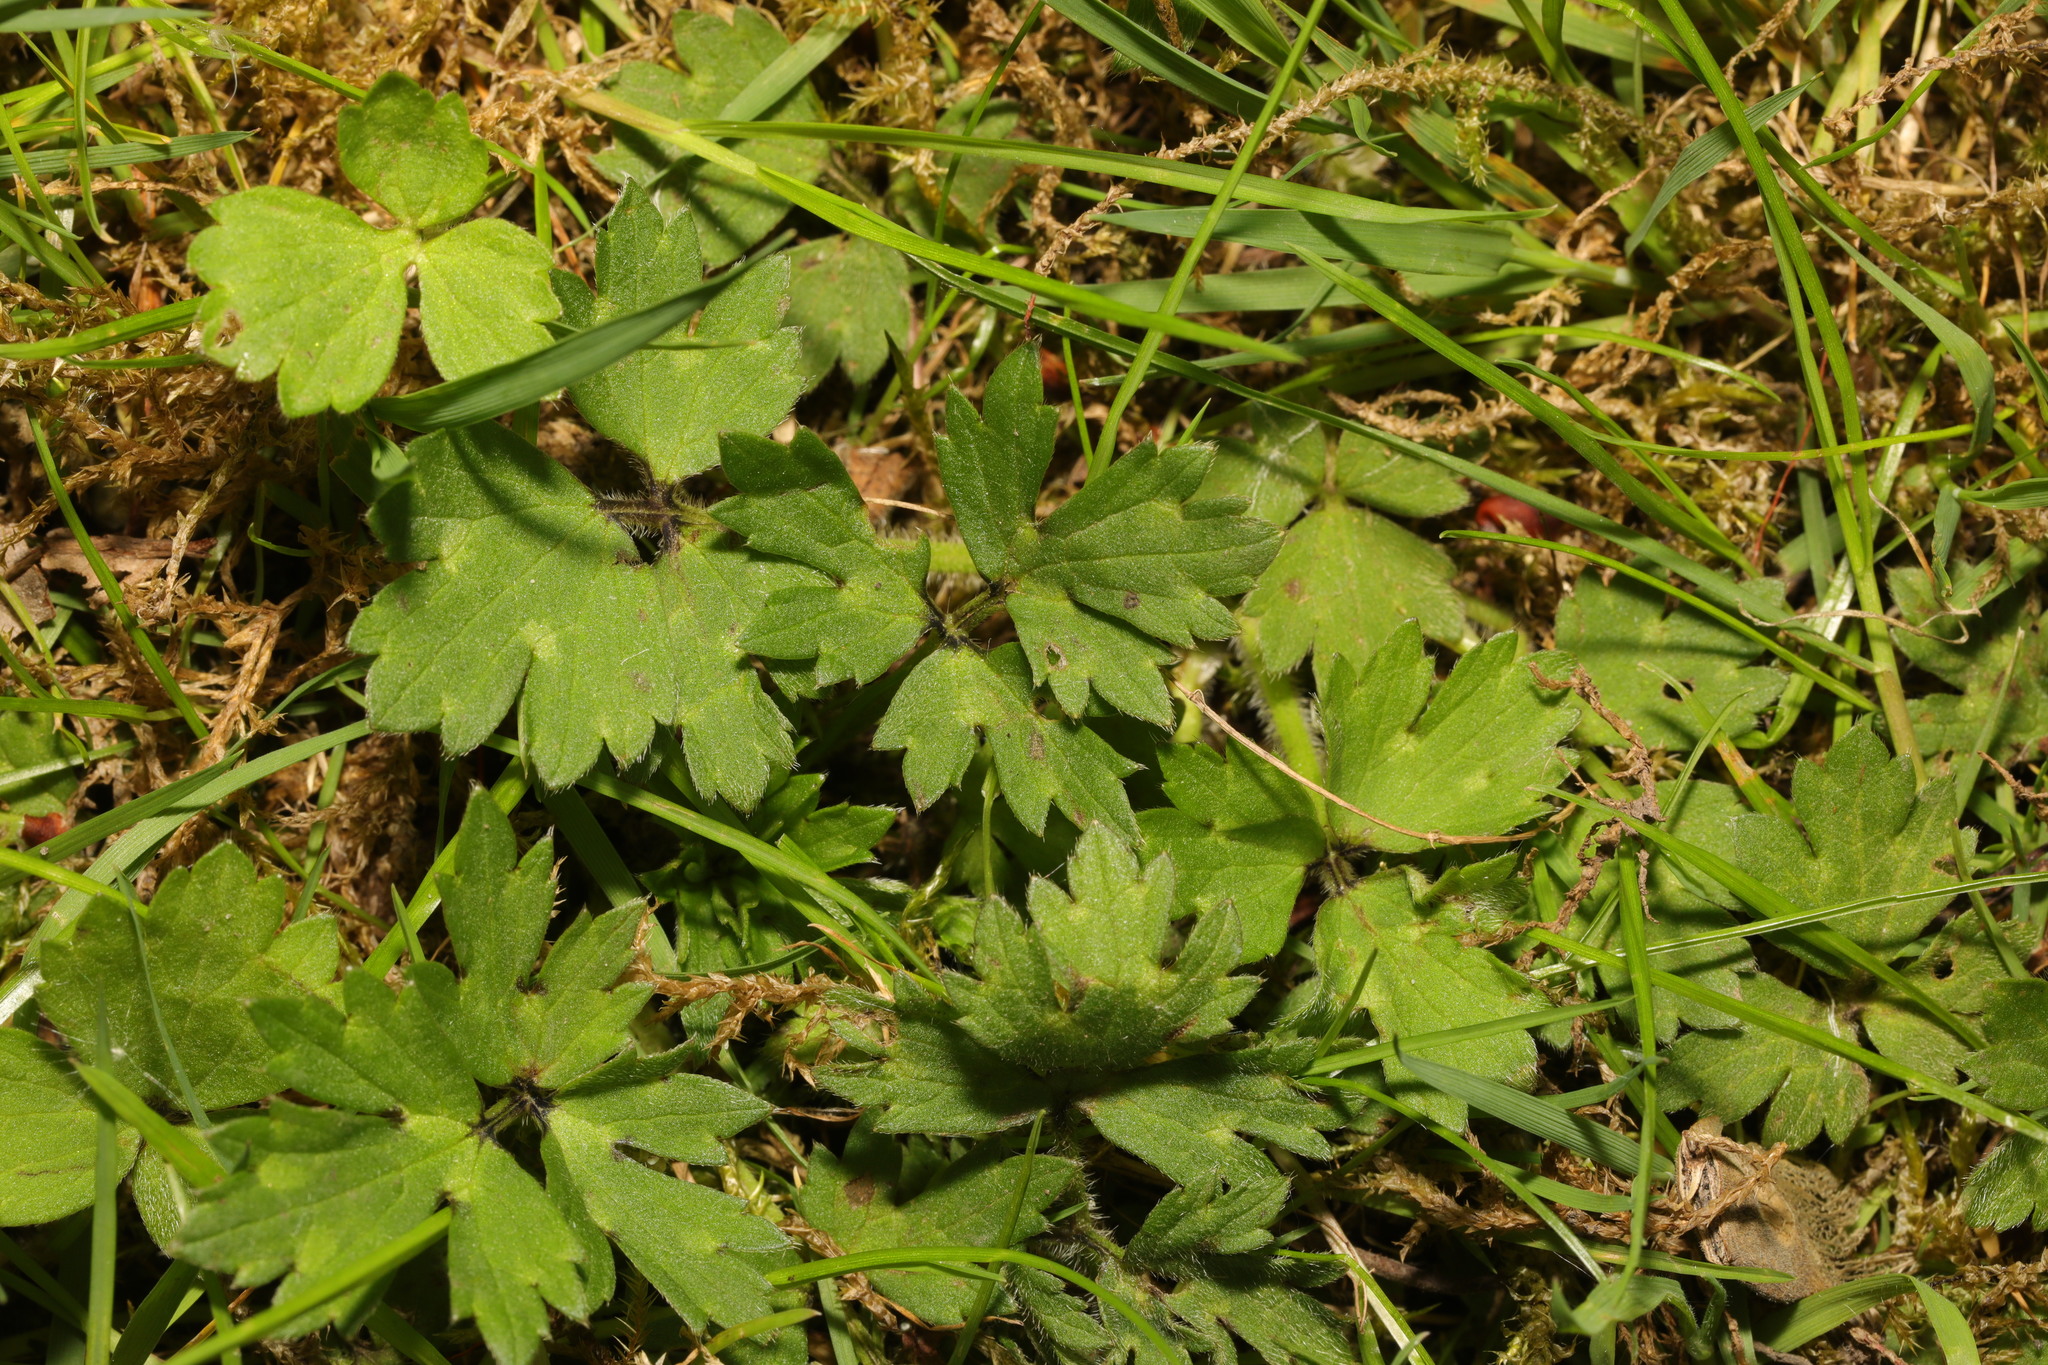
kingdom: Plantae
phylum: Tracheophyta
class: Magnoliopsida
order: Ranunculales
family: Ranunculaceae
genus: Ranunculus
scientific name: Ranunculus repens
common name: Creeping buttercup
